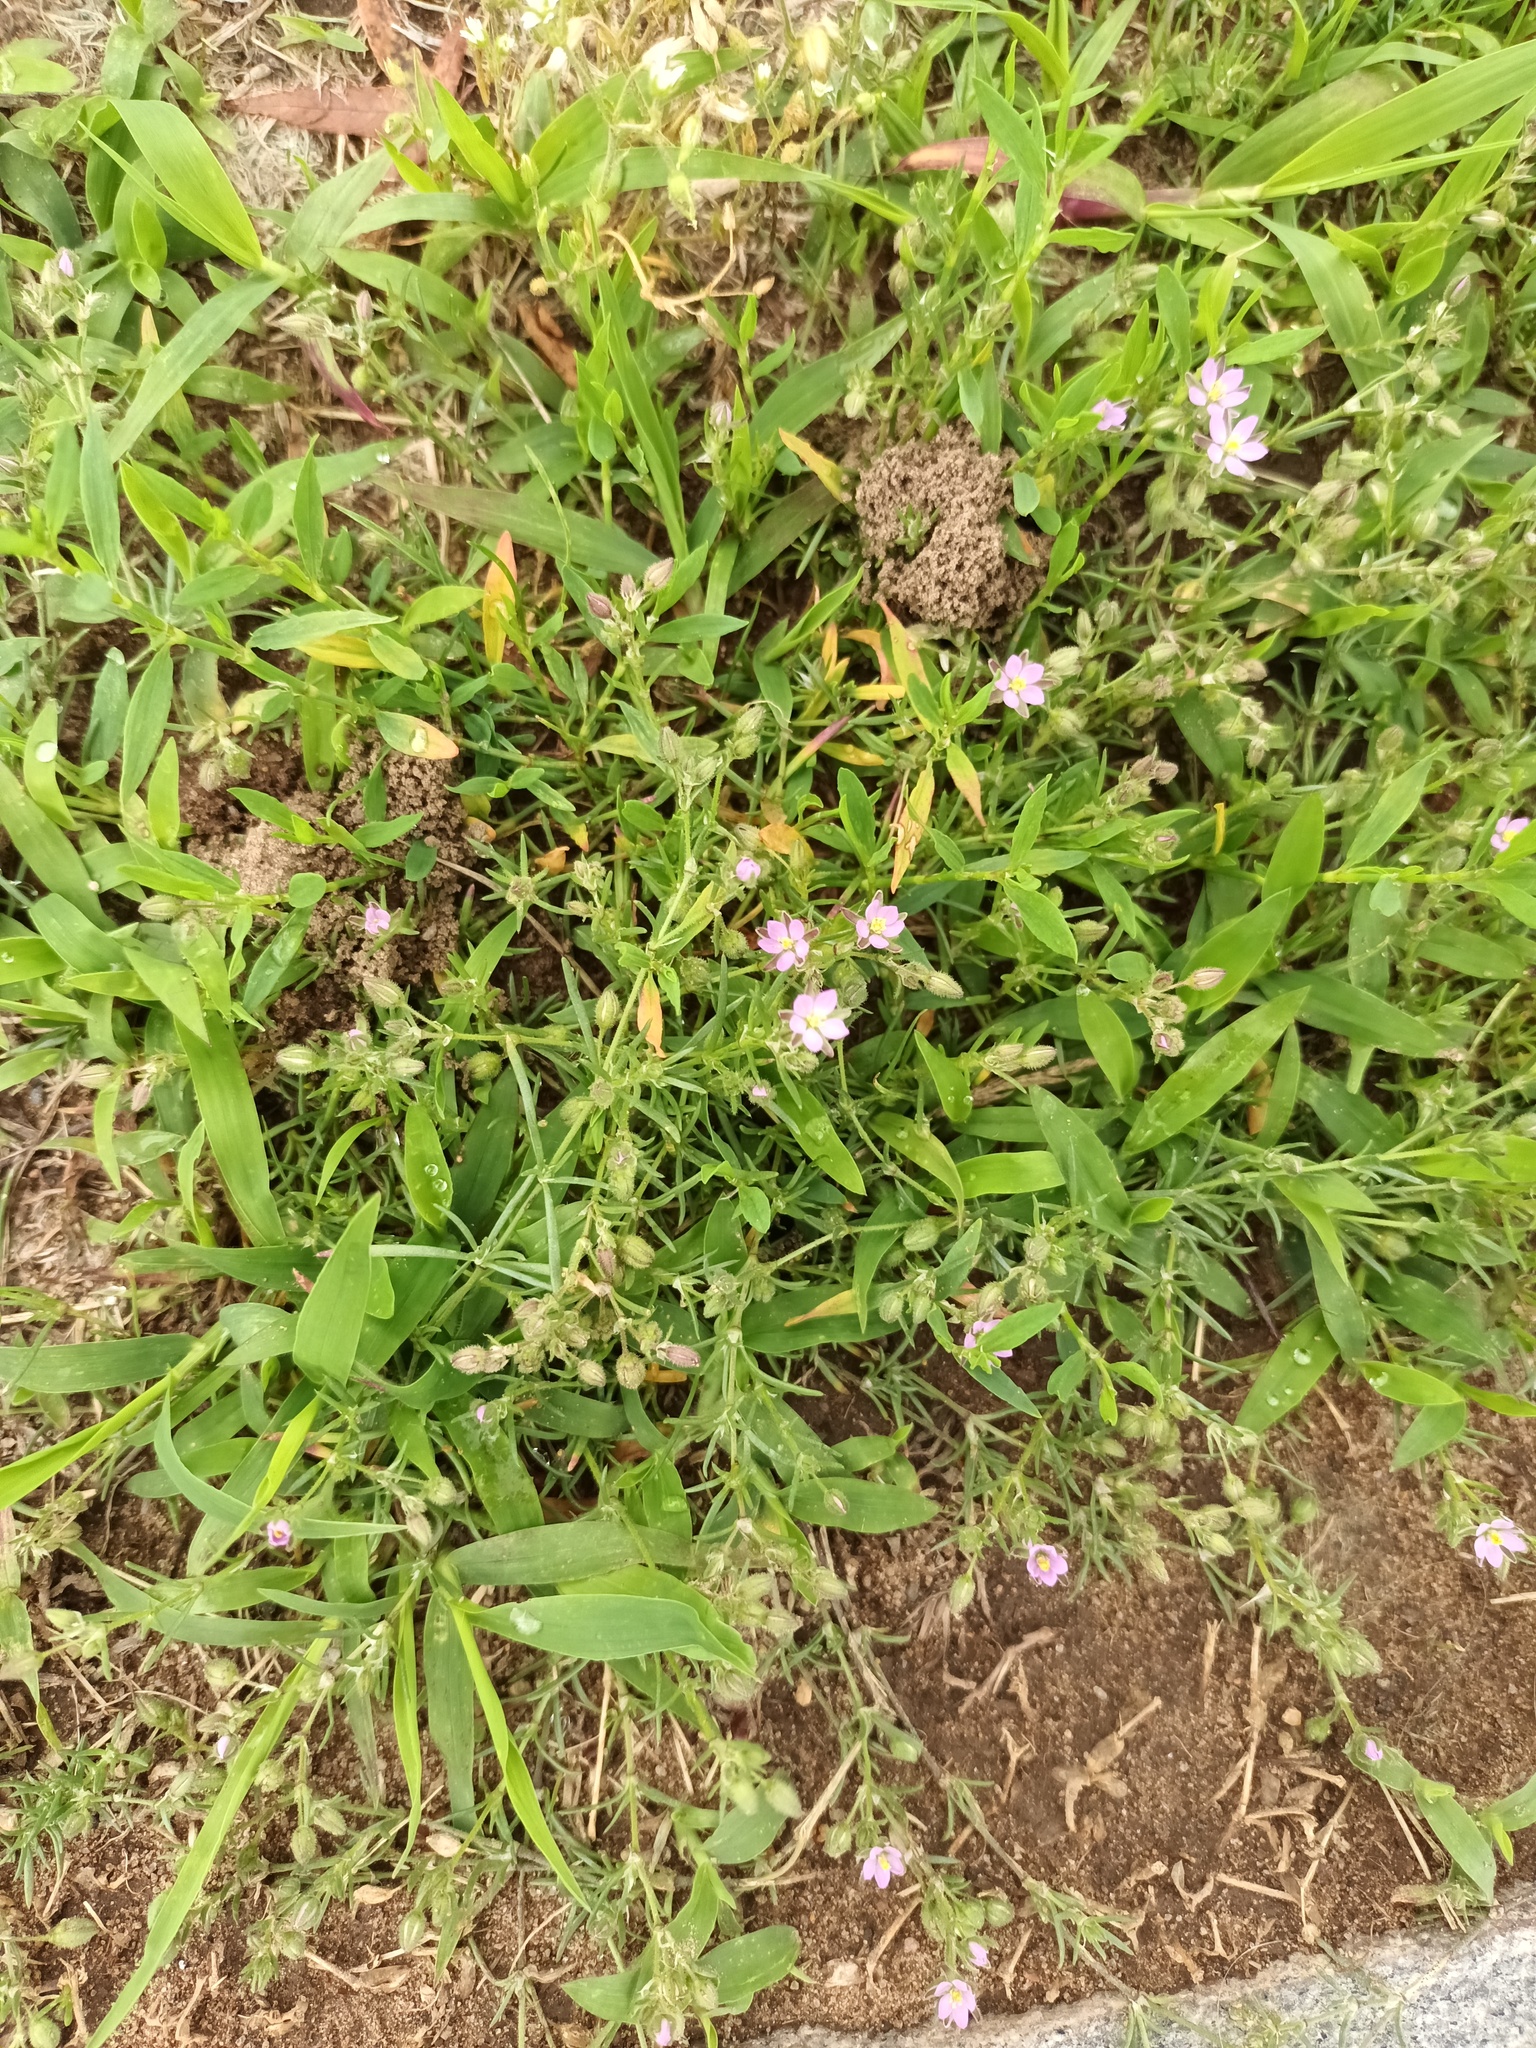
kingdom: Plantae
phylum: Tracheophyta
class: Magnoliopsida
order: Caryophyllales
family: Caryophyllaceae
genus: Spergularia
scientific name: Spergularia rubra
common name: Red sand-spurrey
